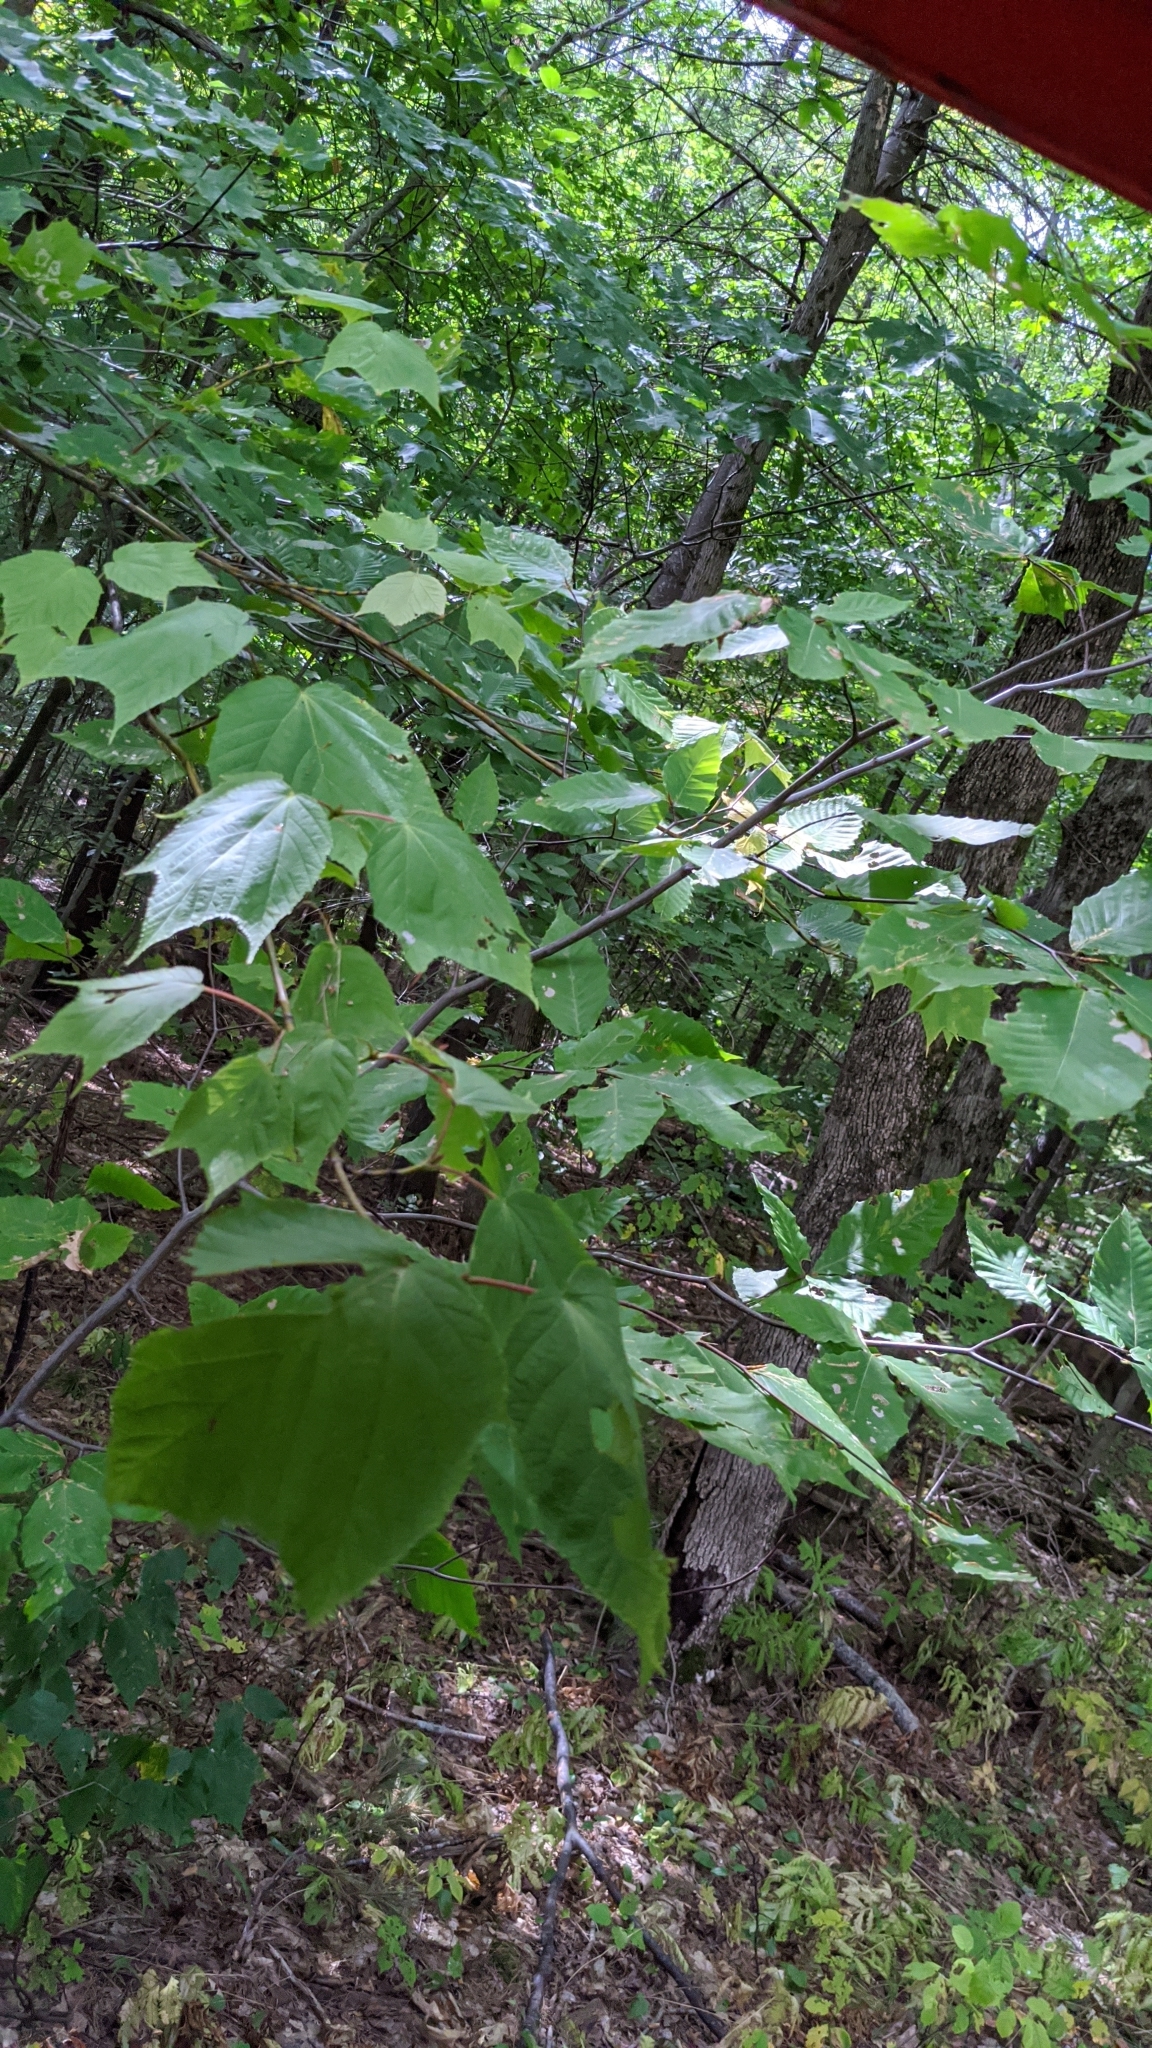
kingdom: Plantae
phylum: Tracheophyta
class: Magnoliopsida
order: Sapindales
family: Sapindaceae
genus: Acer
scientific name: Acer pensylvanicum
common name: Moosewood
